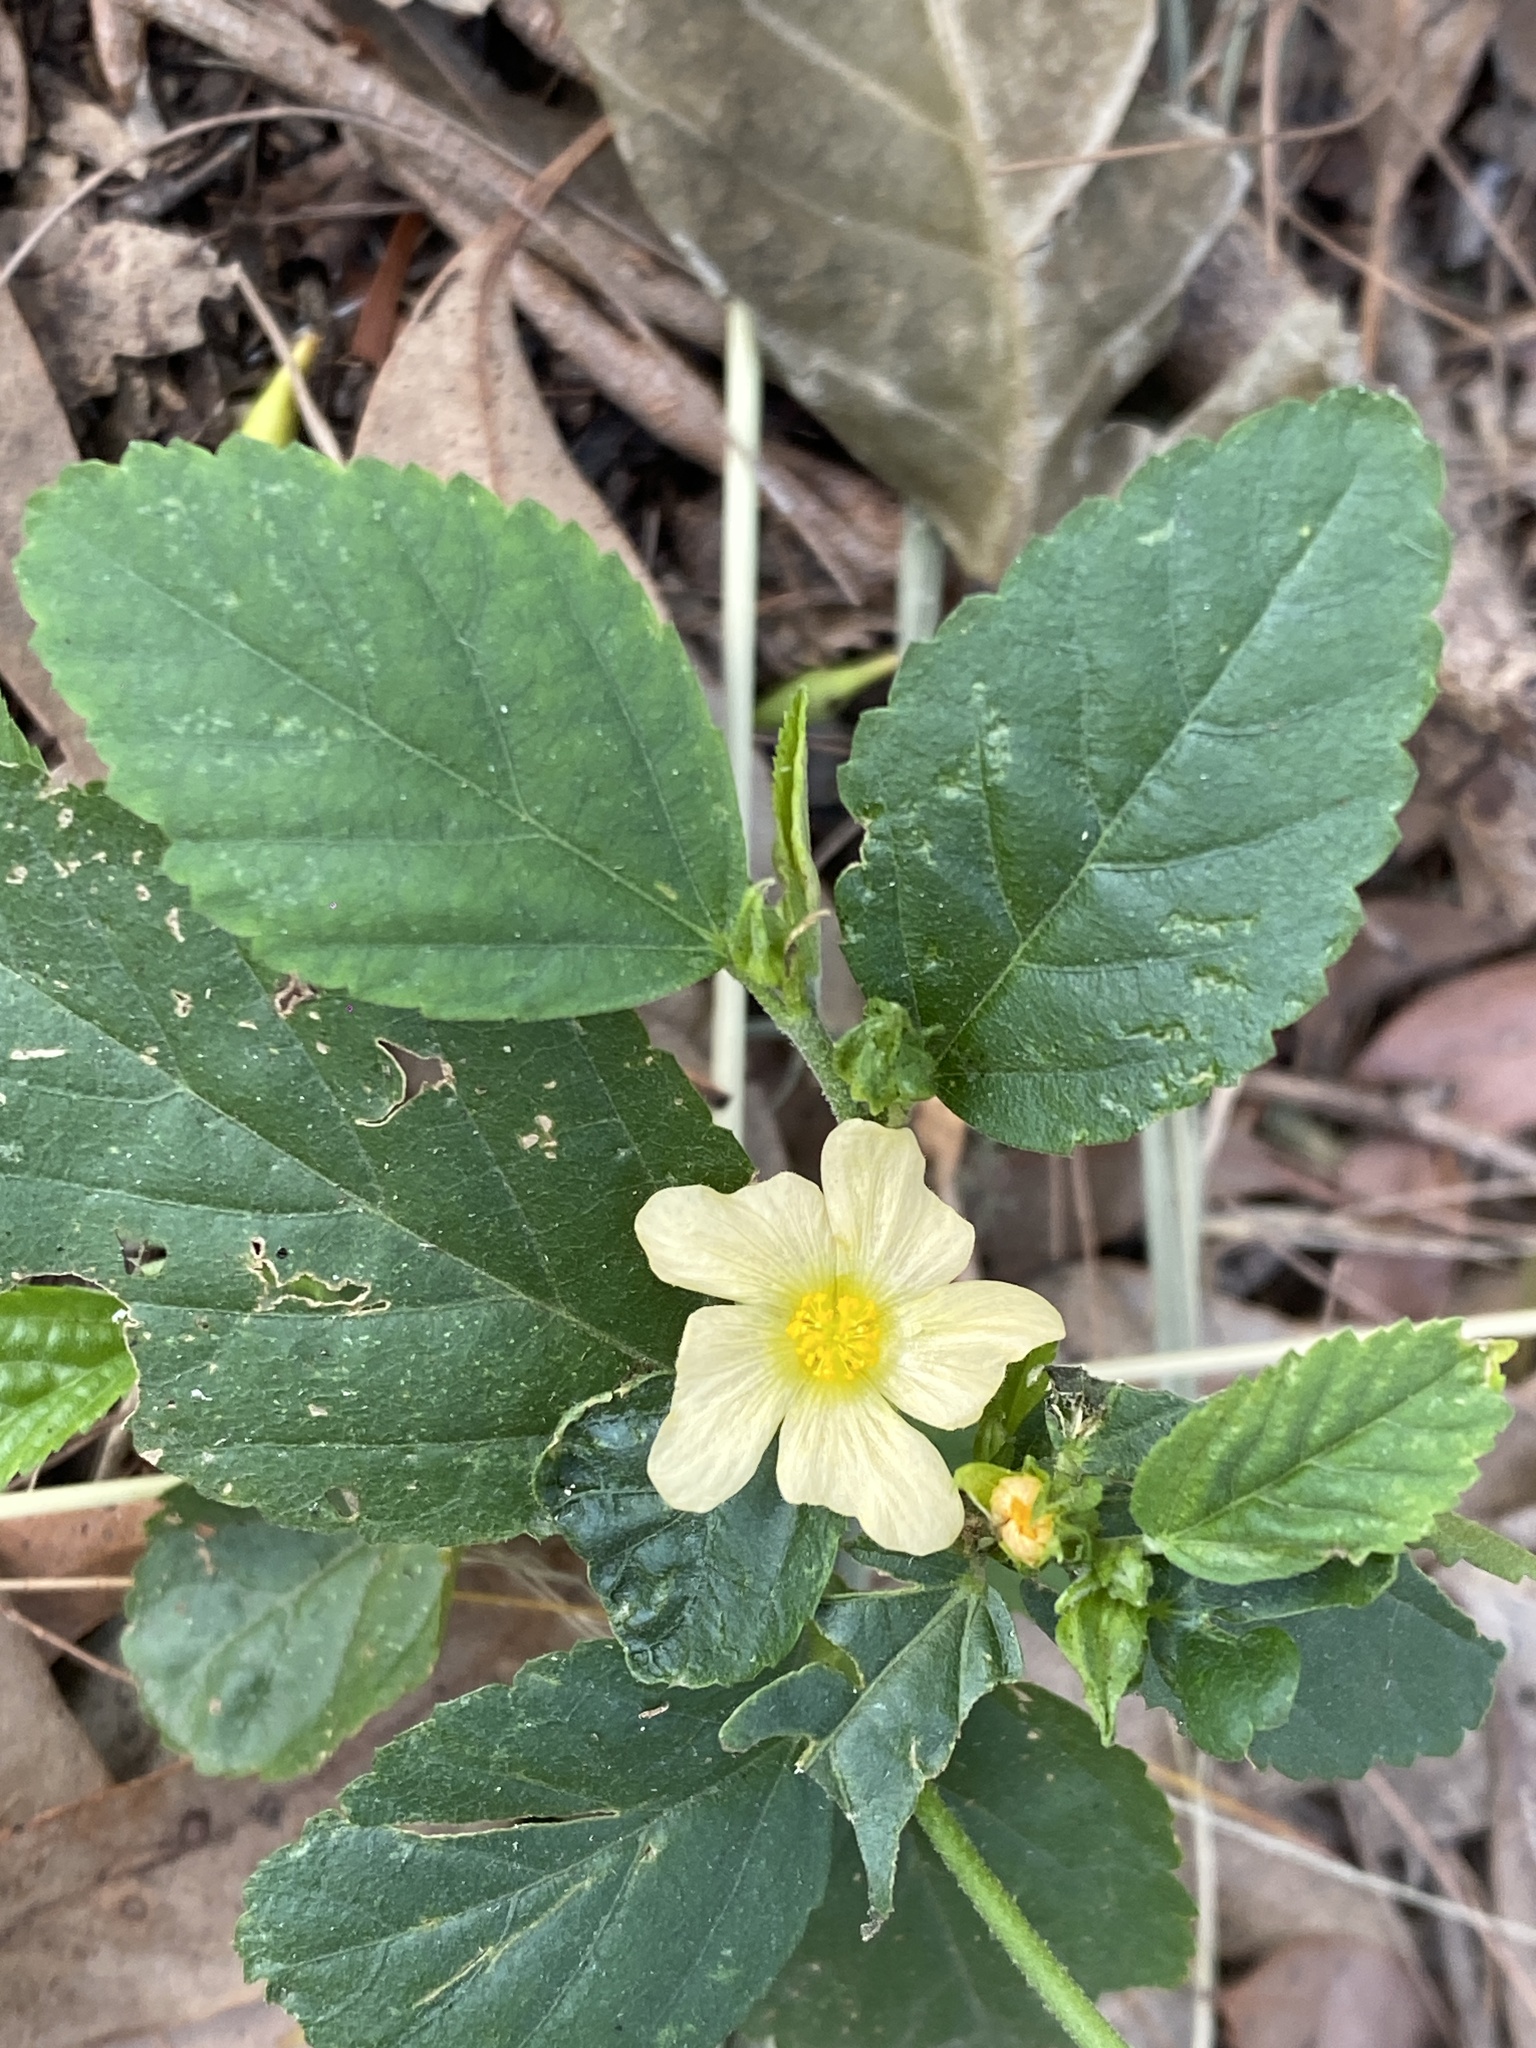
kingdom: Plantae
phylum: Tracheophyta
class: Magnoliopsida
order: Malvales
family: Malvaceae
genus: Sida
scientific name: Sida rhombifolia
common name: Queensland-hemp
